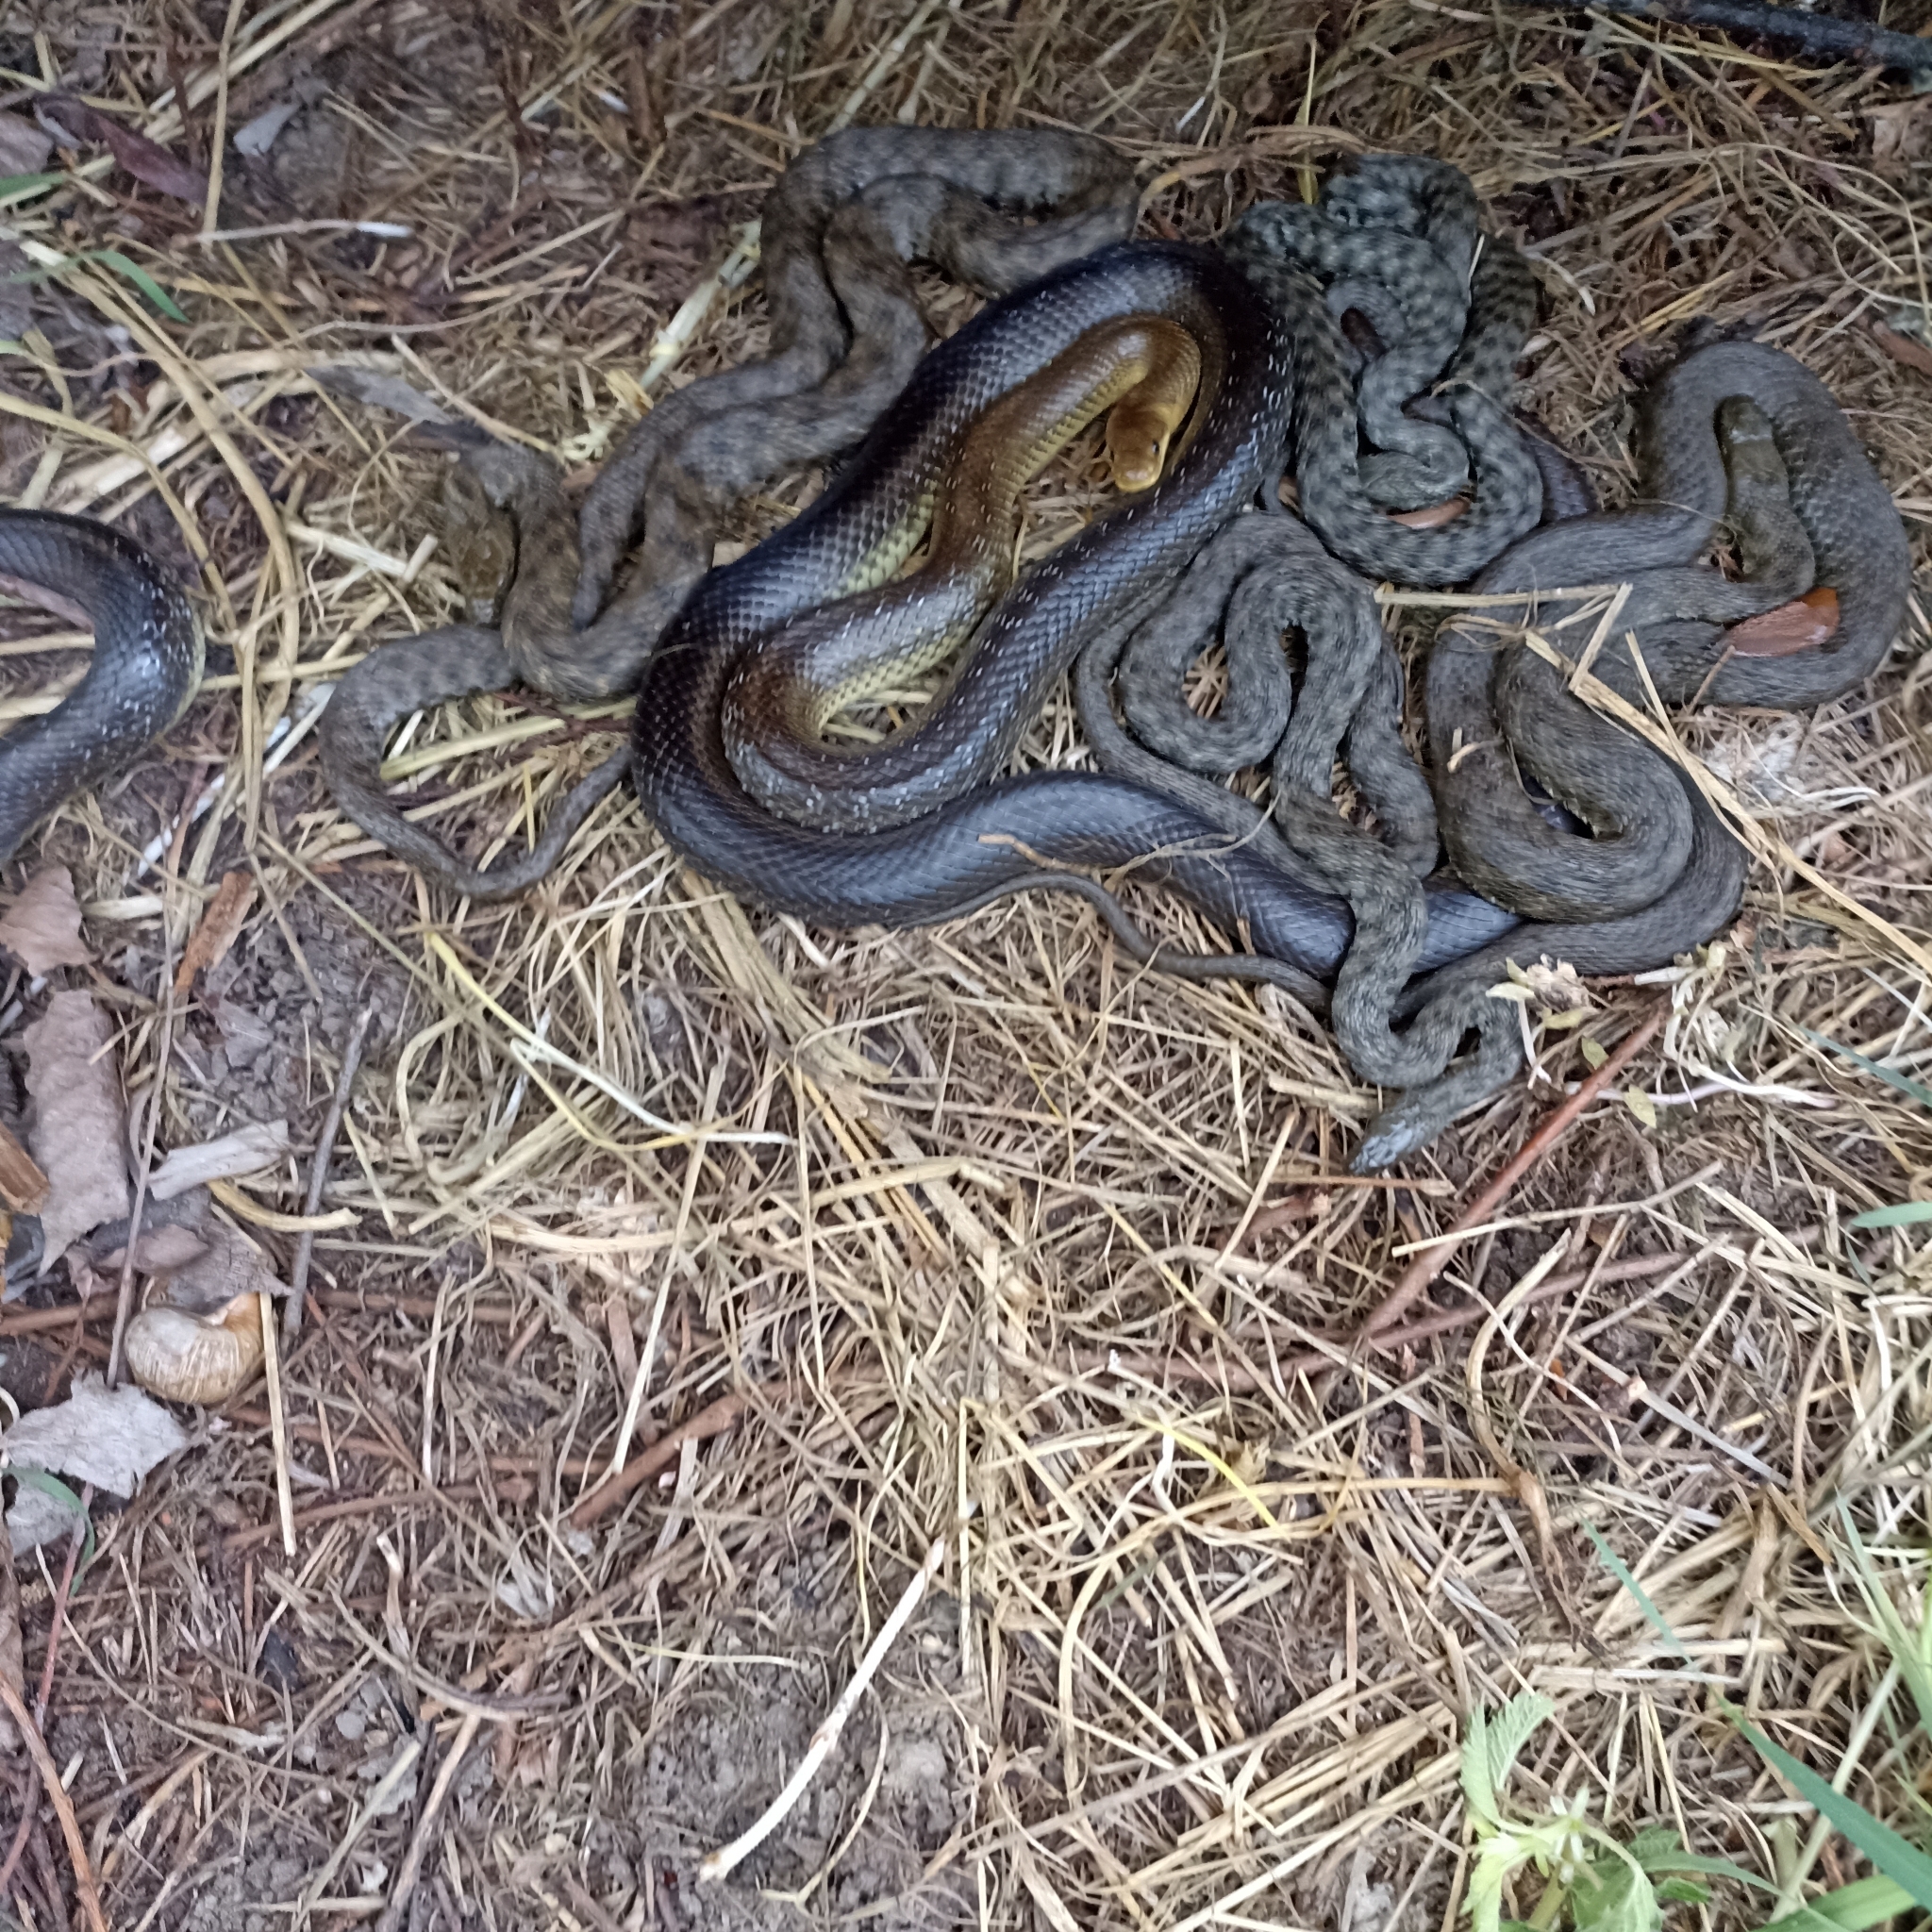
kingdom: Animalia
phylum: Chordata
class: Squamata
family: Colubridae
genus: Zamenis
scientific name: Zamenis longissimus
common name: Aesculapean snake
